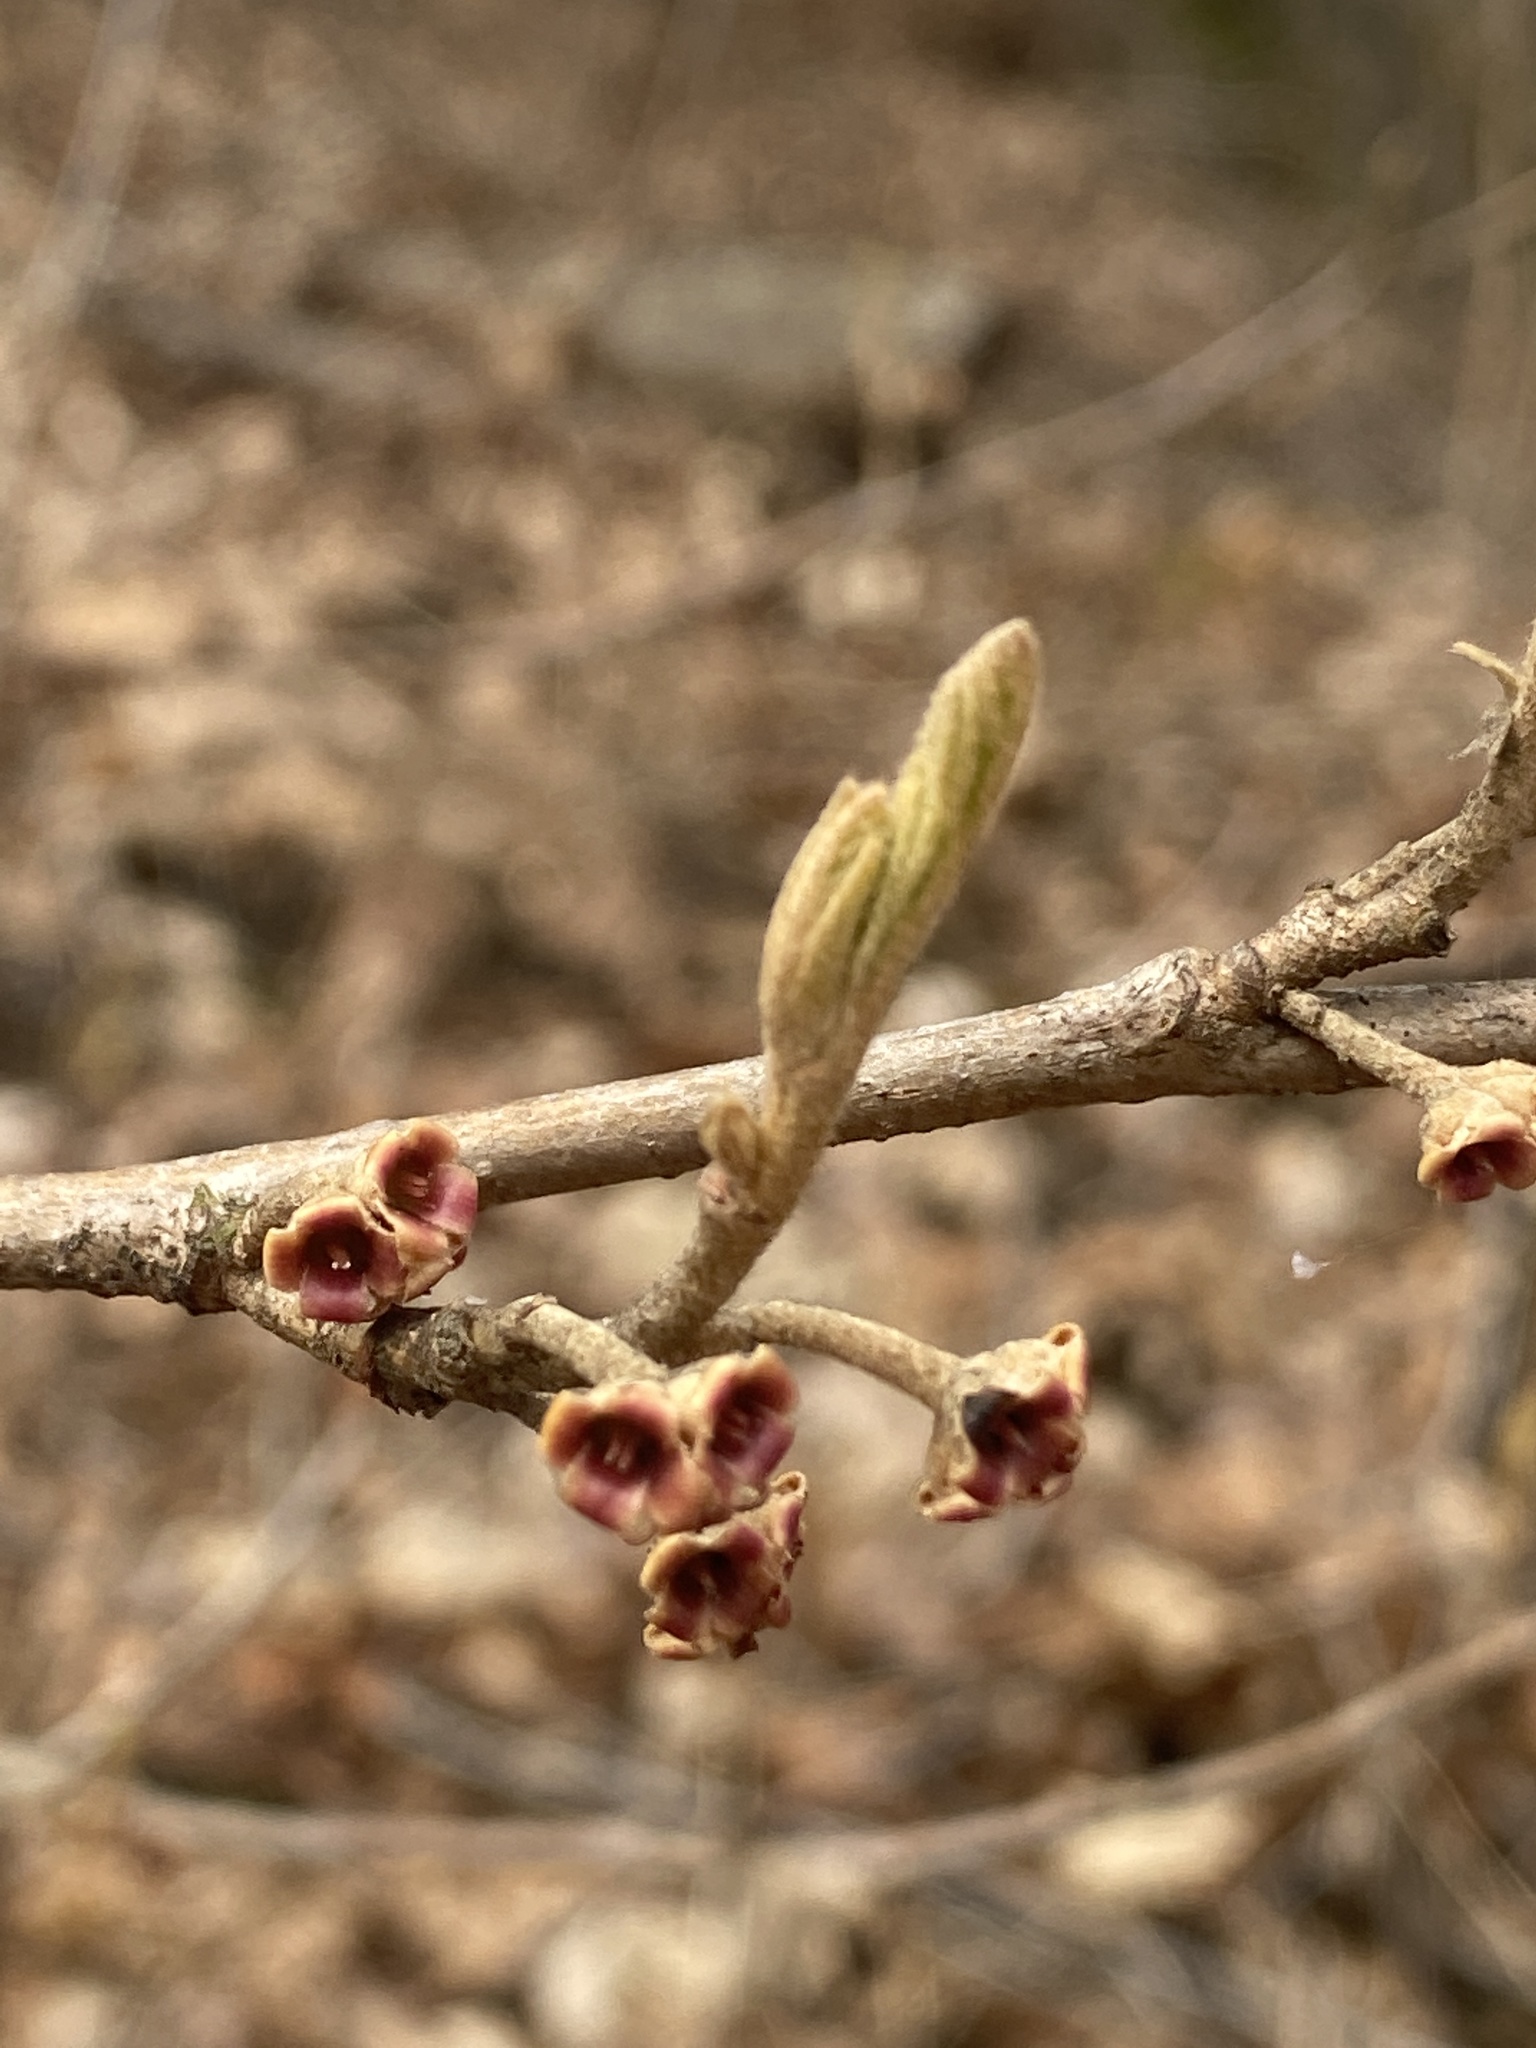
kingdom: Plantae
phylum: Tracheophyta
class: Magnoliopsida
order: Saxifragales
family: Hamamelidaceae
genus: Hamamelis
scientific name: Hamamelis
